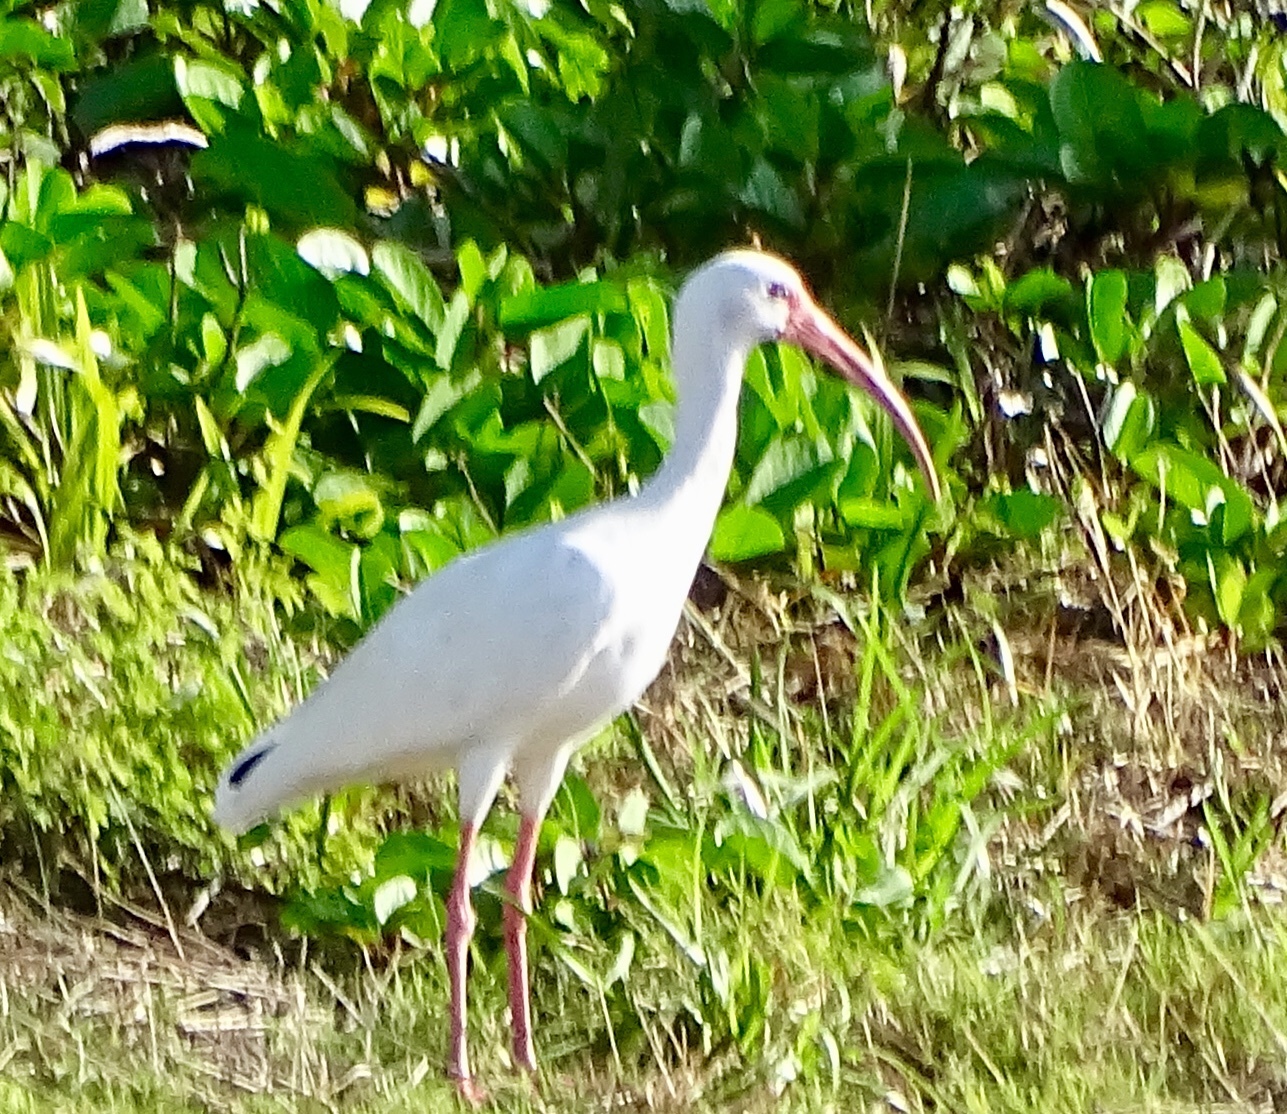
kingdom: Animalia
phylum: Chordata
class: Aves
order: Pelecaniformes
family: Threskiornithidae
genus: Eudocimus
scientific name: Eudocimus albus
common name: White ibis
